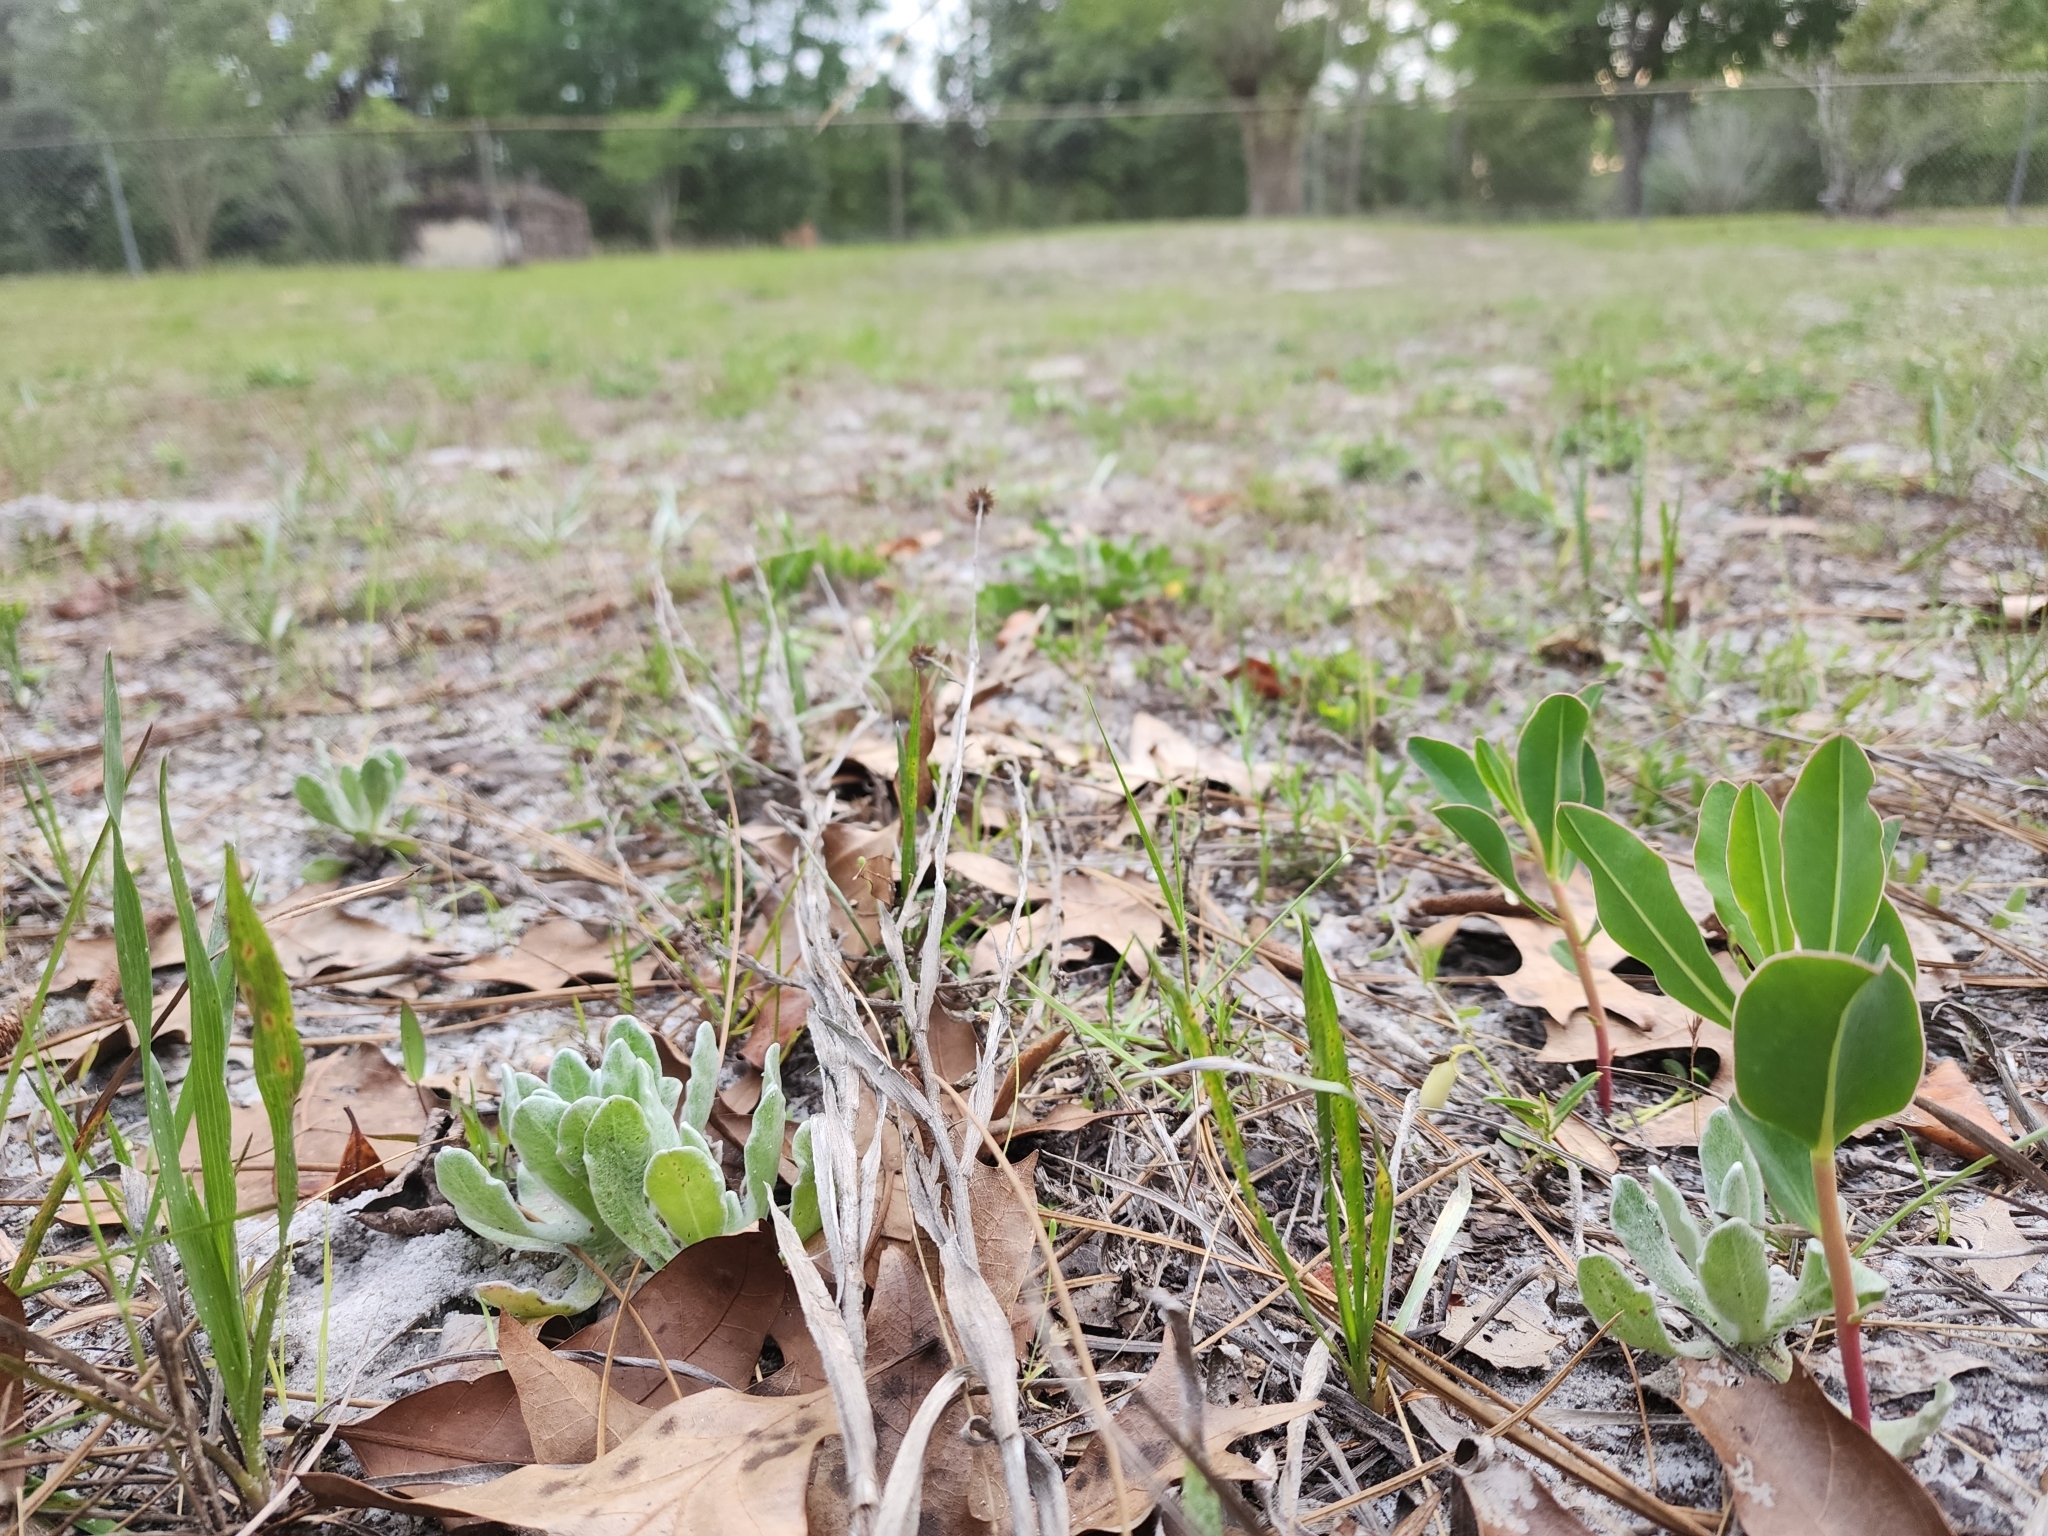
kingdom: Plantae
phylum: Tracheophyta
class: Magnoliopsida
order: Malpighiales
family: Euphorbiaceae
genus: Euphorbia
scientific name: Euphorbia telephioides
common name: Telephus spurge
